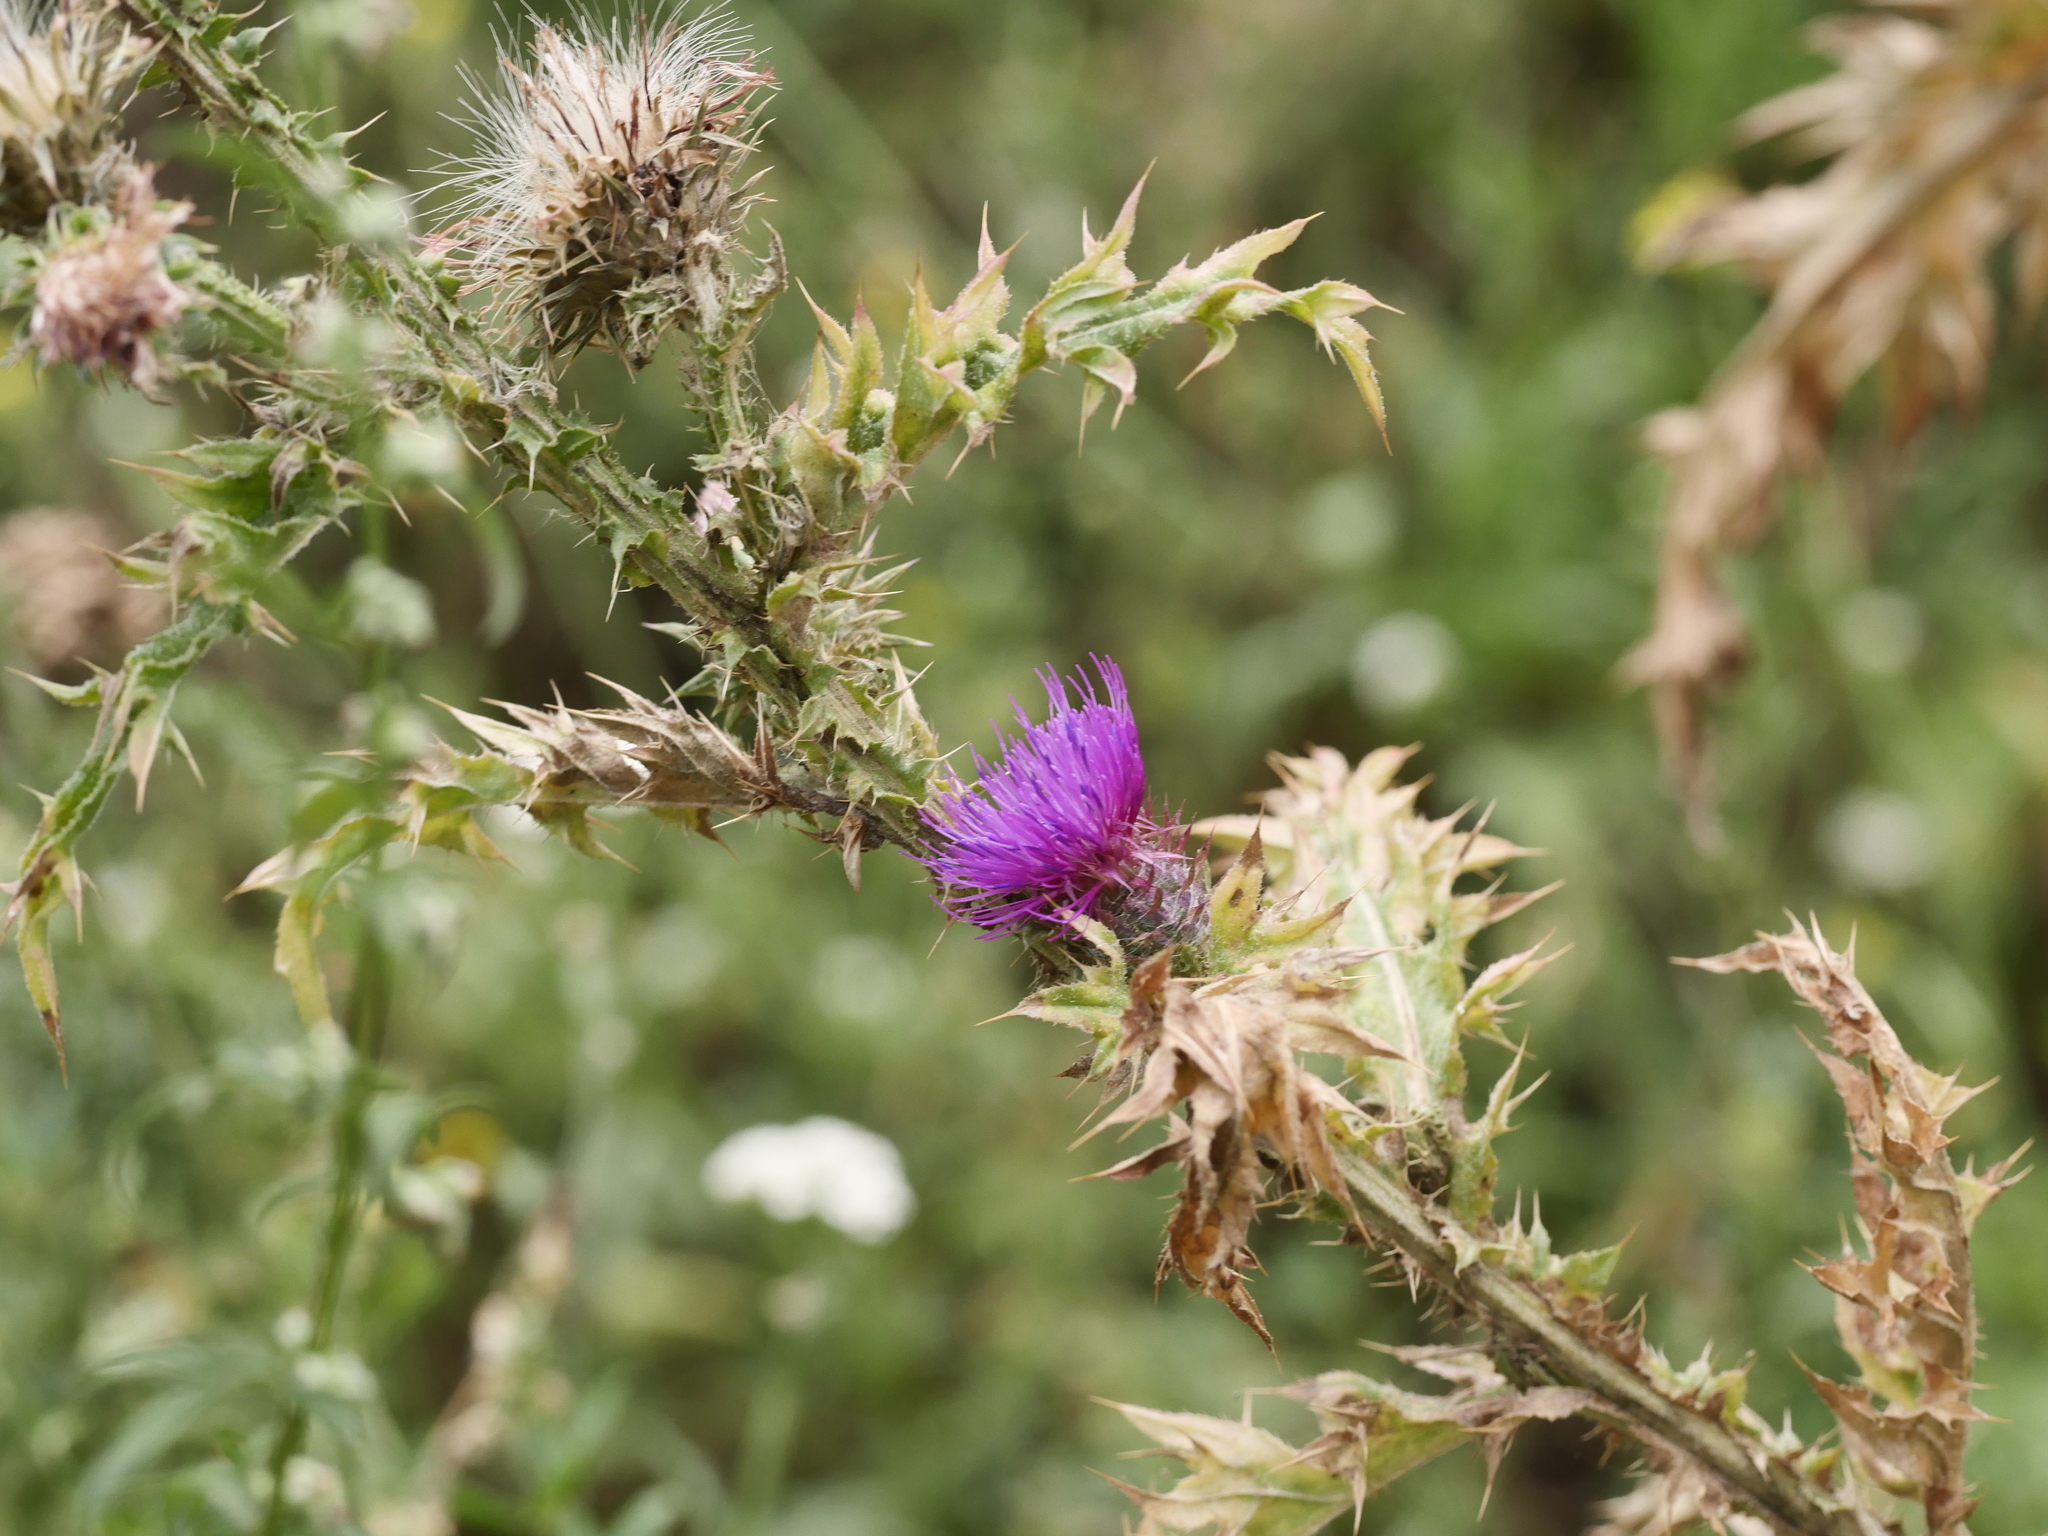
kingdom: Plantae
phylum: Tracheophyta
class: Magnoliopsida
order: Asterales
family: Asteraceae
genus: Carduus
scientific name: Carduus acanthoides
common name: Plumeless thistle
